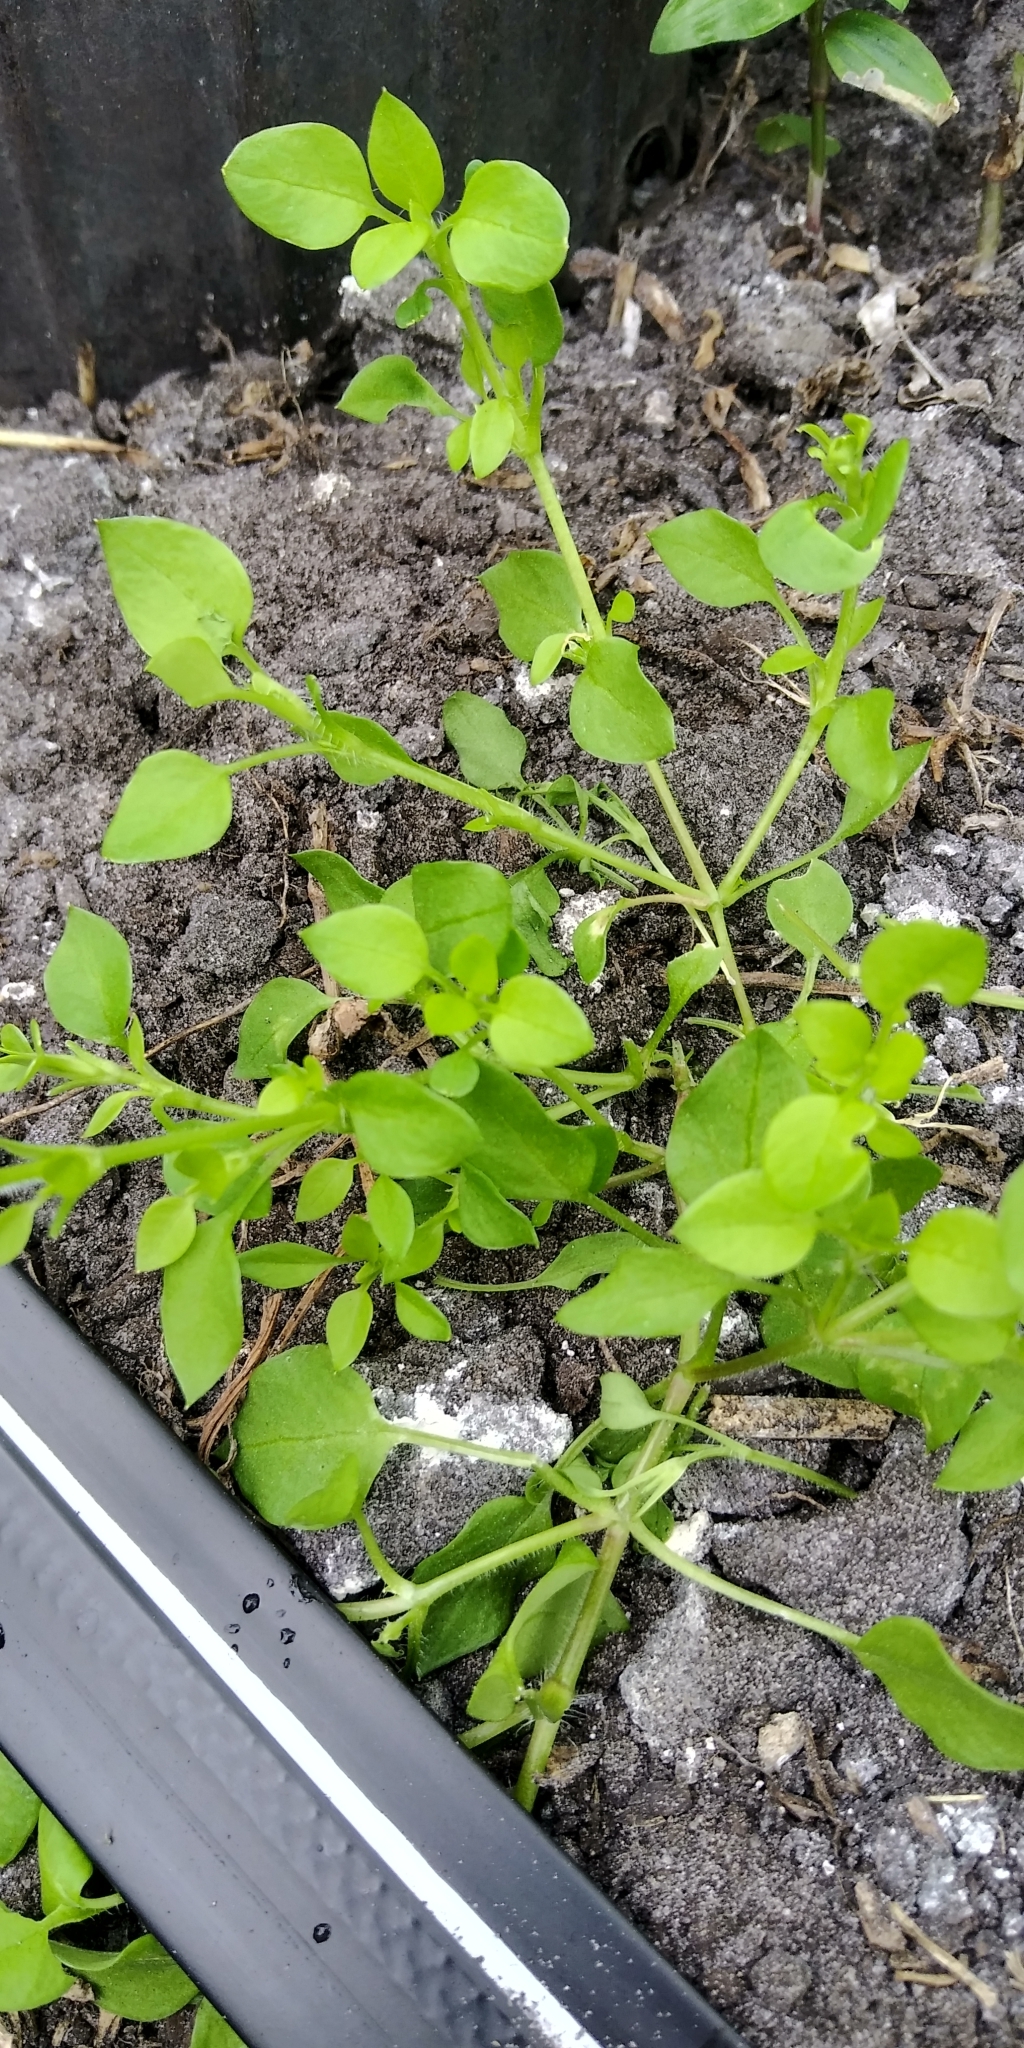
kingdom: Plantae
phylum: Tracheophyta
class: Magnoliopsida
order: Caryophyllales
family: Caryophyllaceae
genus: Stellaria
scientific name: Stellaria media
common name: Common chickweed
